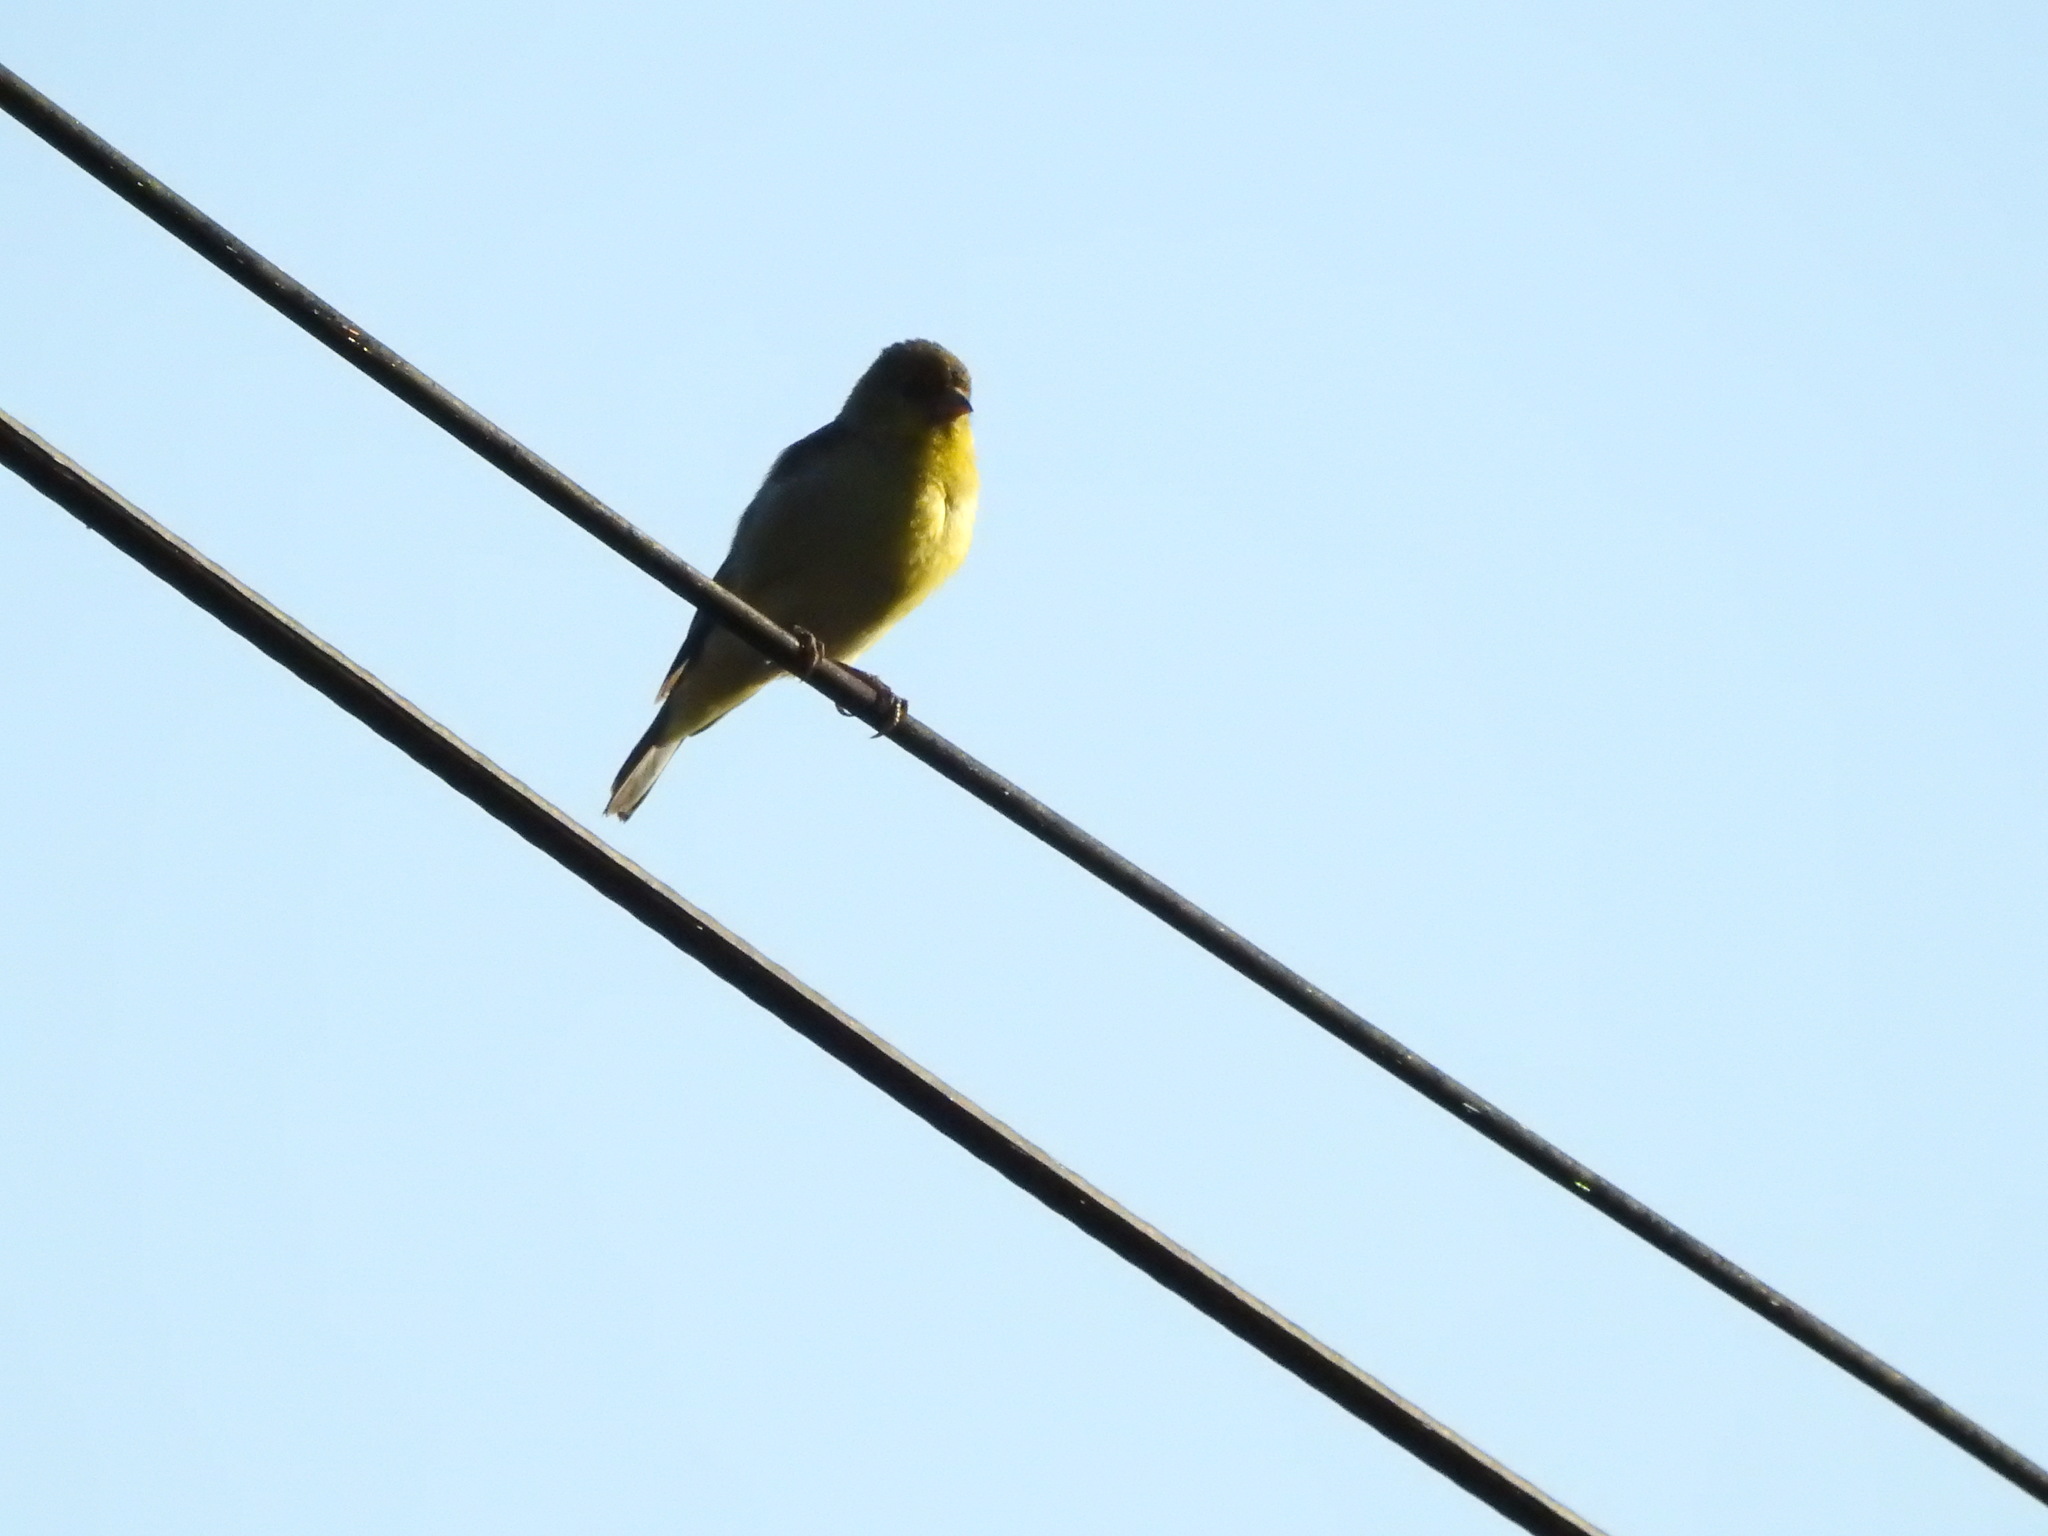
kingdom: Animalia
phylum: Chordata
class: Aves
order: Passeriformes
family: Fringillidae
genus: Spinus
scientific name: Spinus psaltria
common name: Lesser goldfinch
